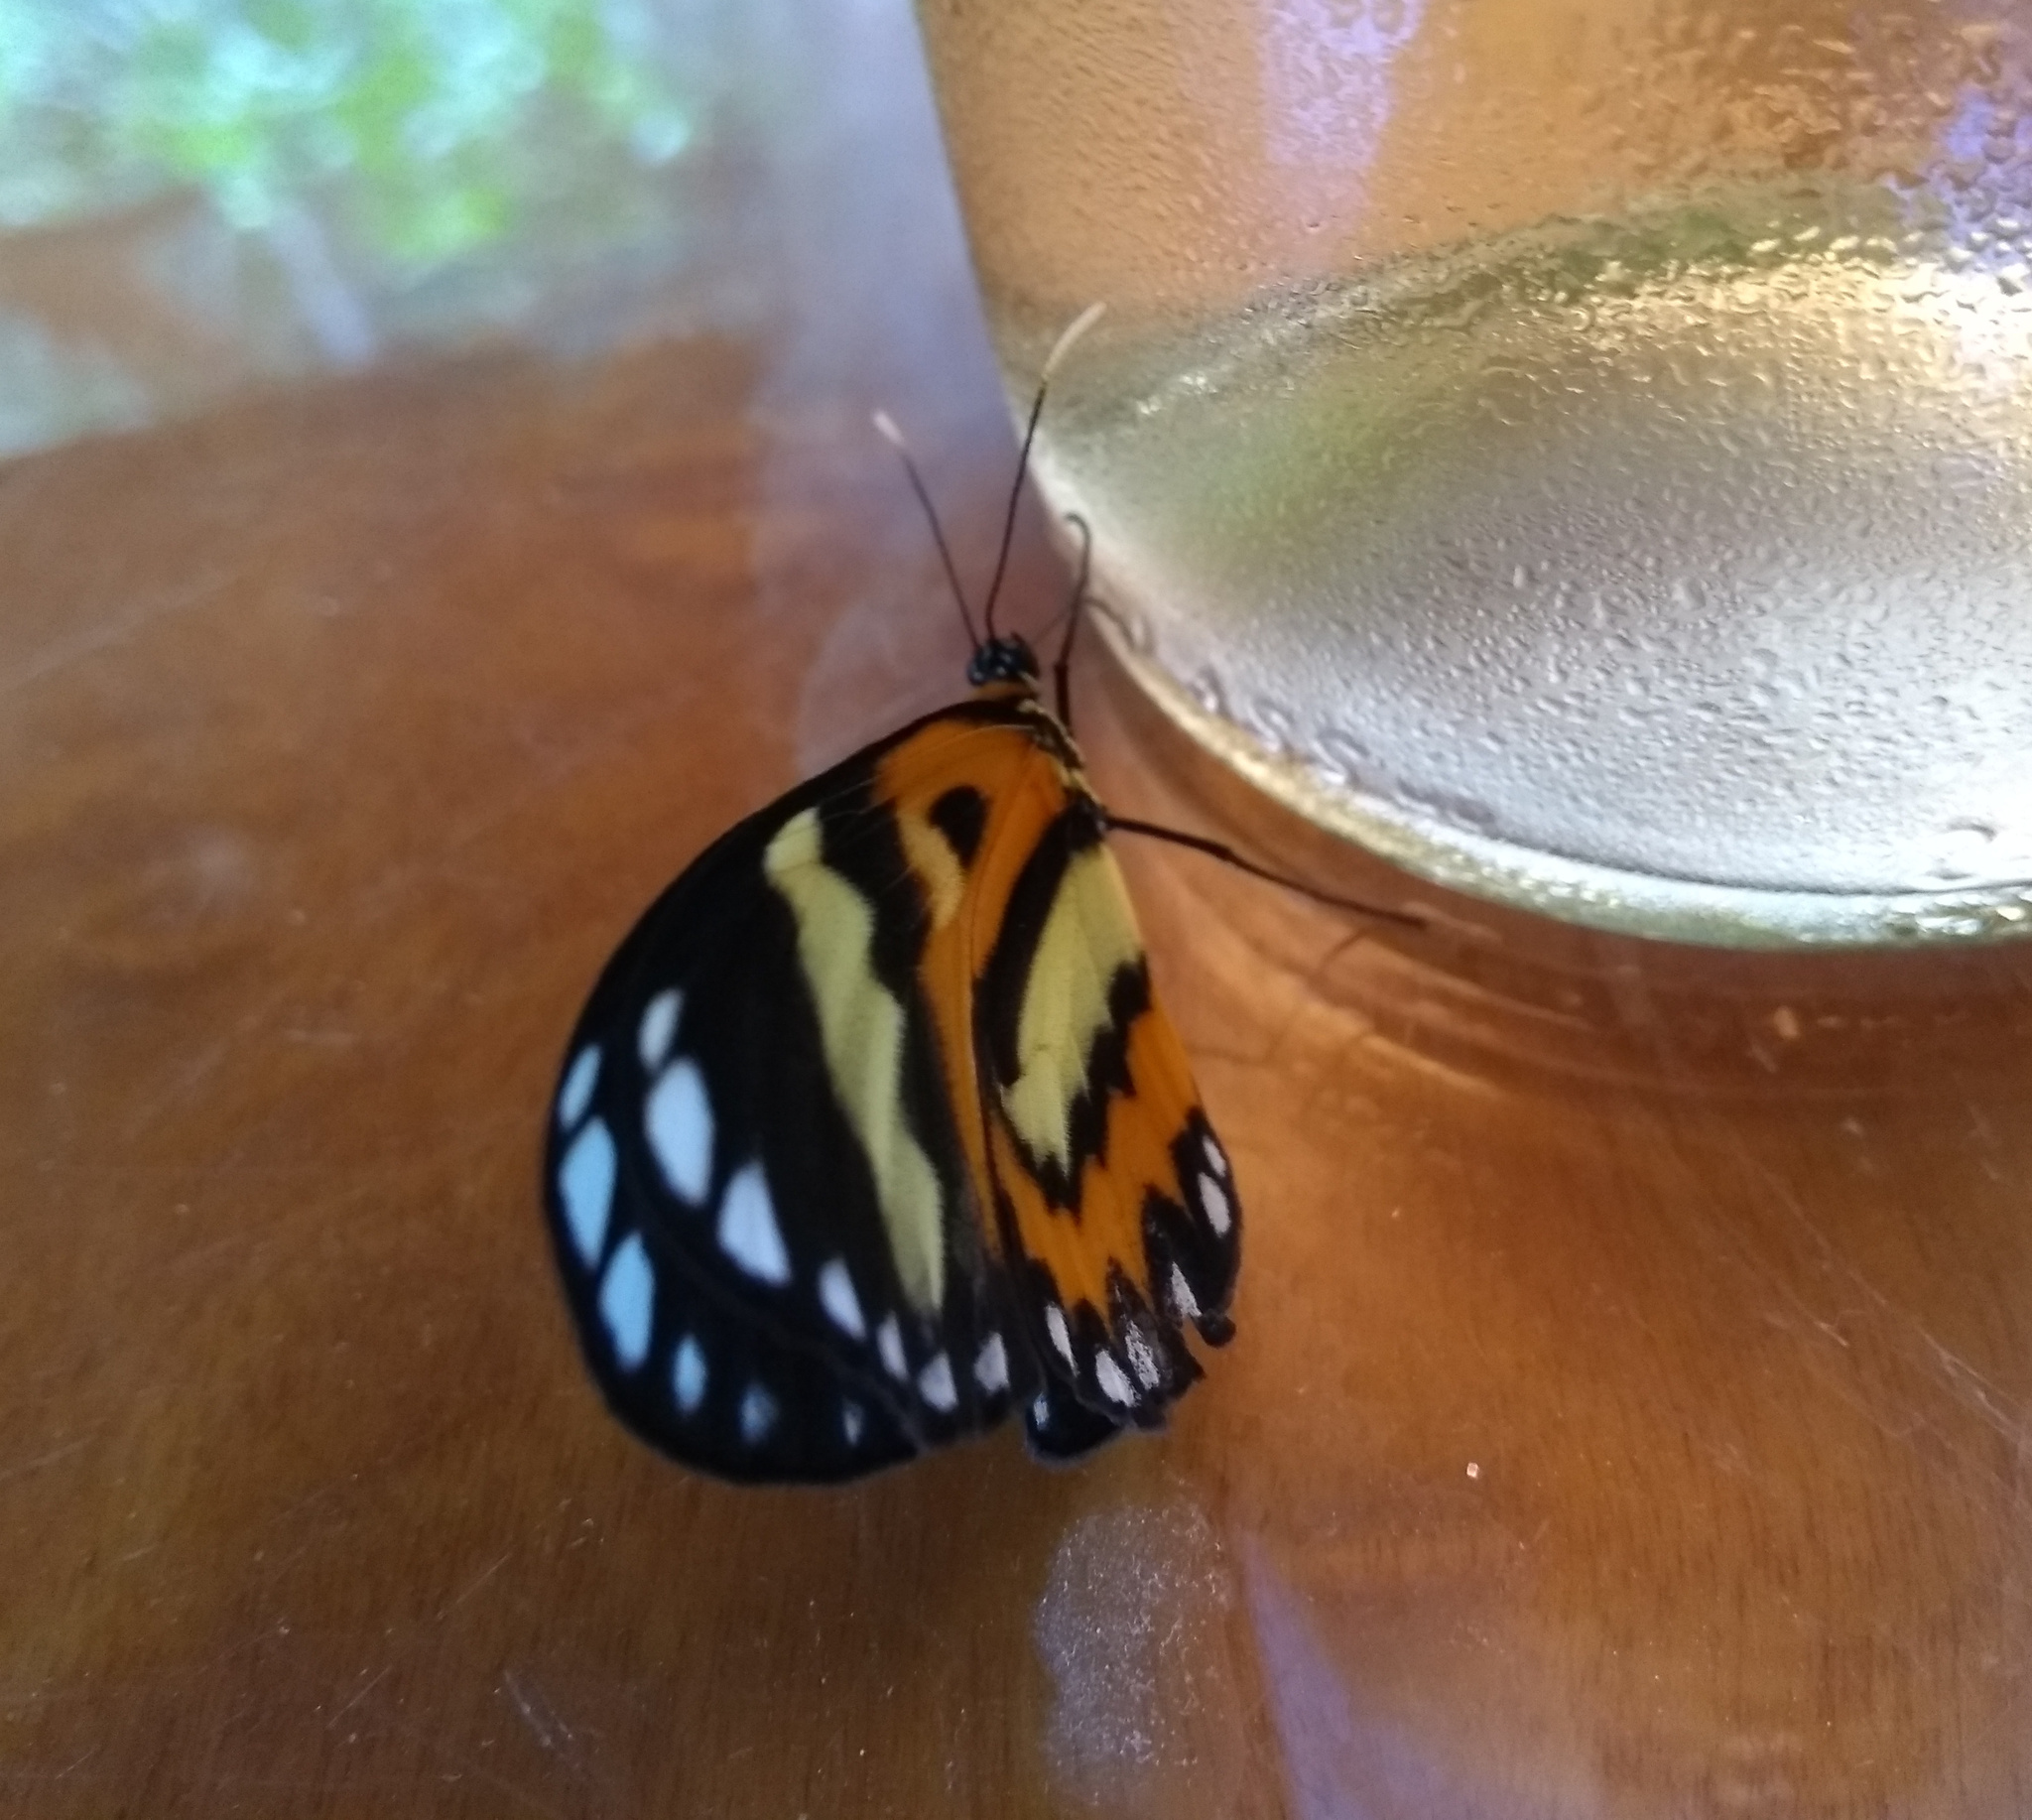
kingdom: Animalia
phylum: Arthropoda
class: Insecta
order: Lepidoptera
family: Nymphalidae
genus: Placidina
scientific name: Placidina euryanassa
